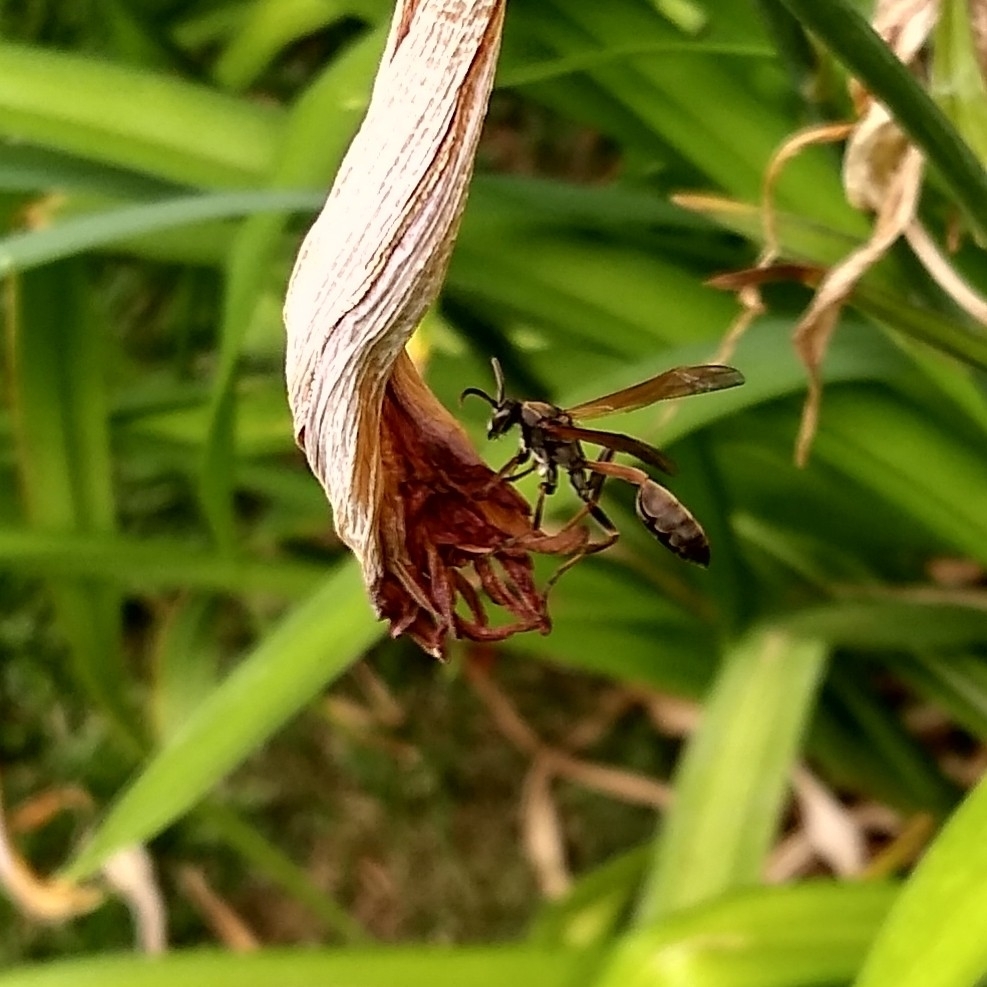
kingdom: Animalia
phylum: Arthropoda
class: Insecta
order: Hymenoptera
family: Vespidae
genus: Mischocyttarus
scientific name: Mischocyttarus drewseni
